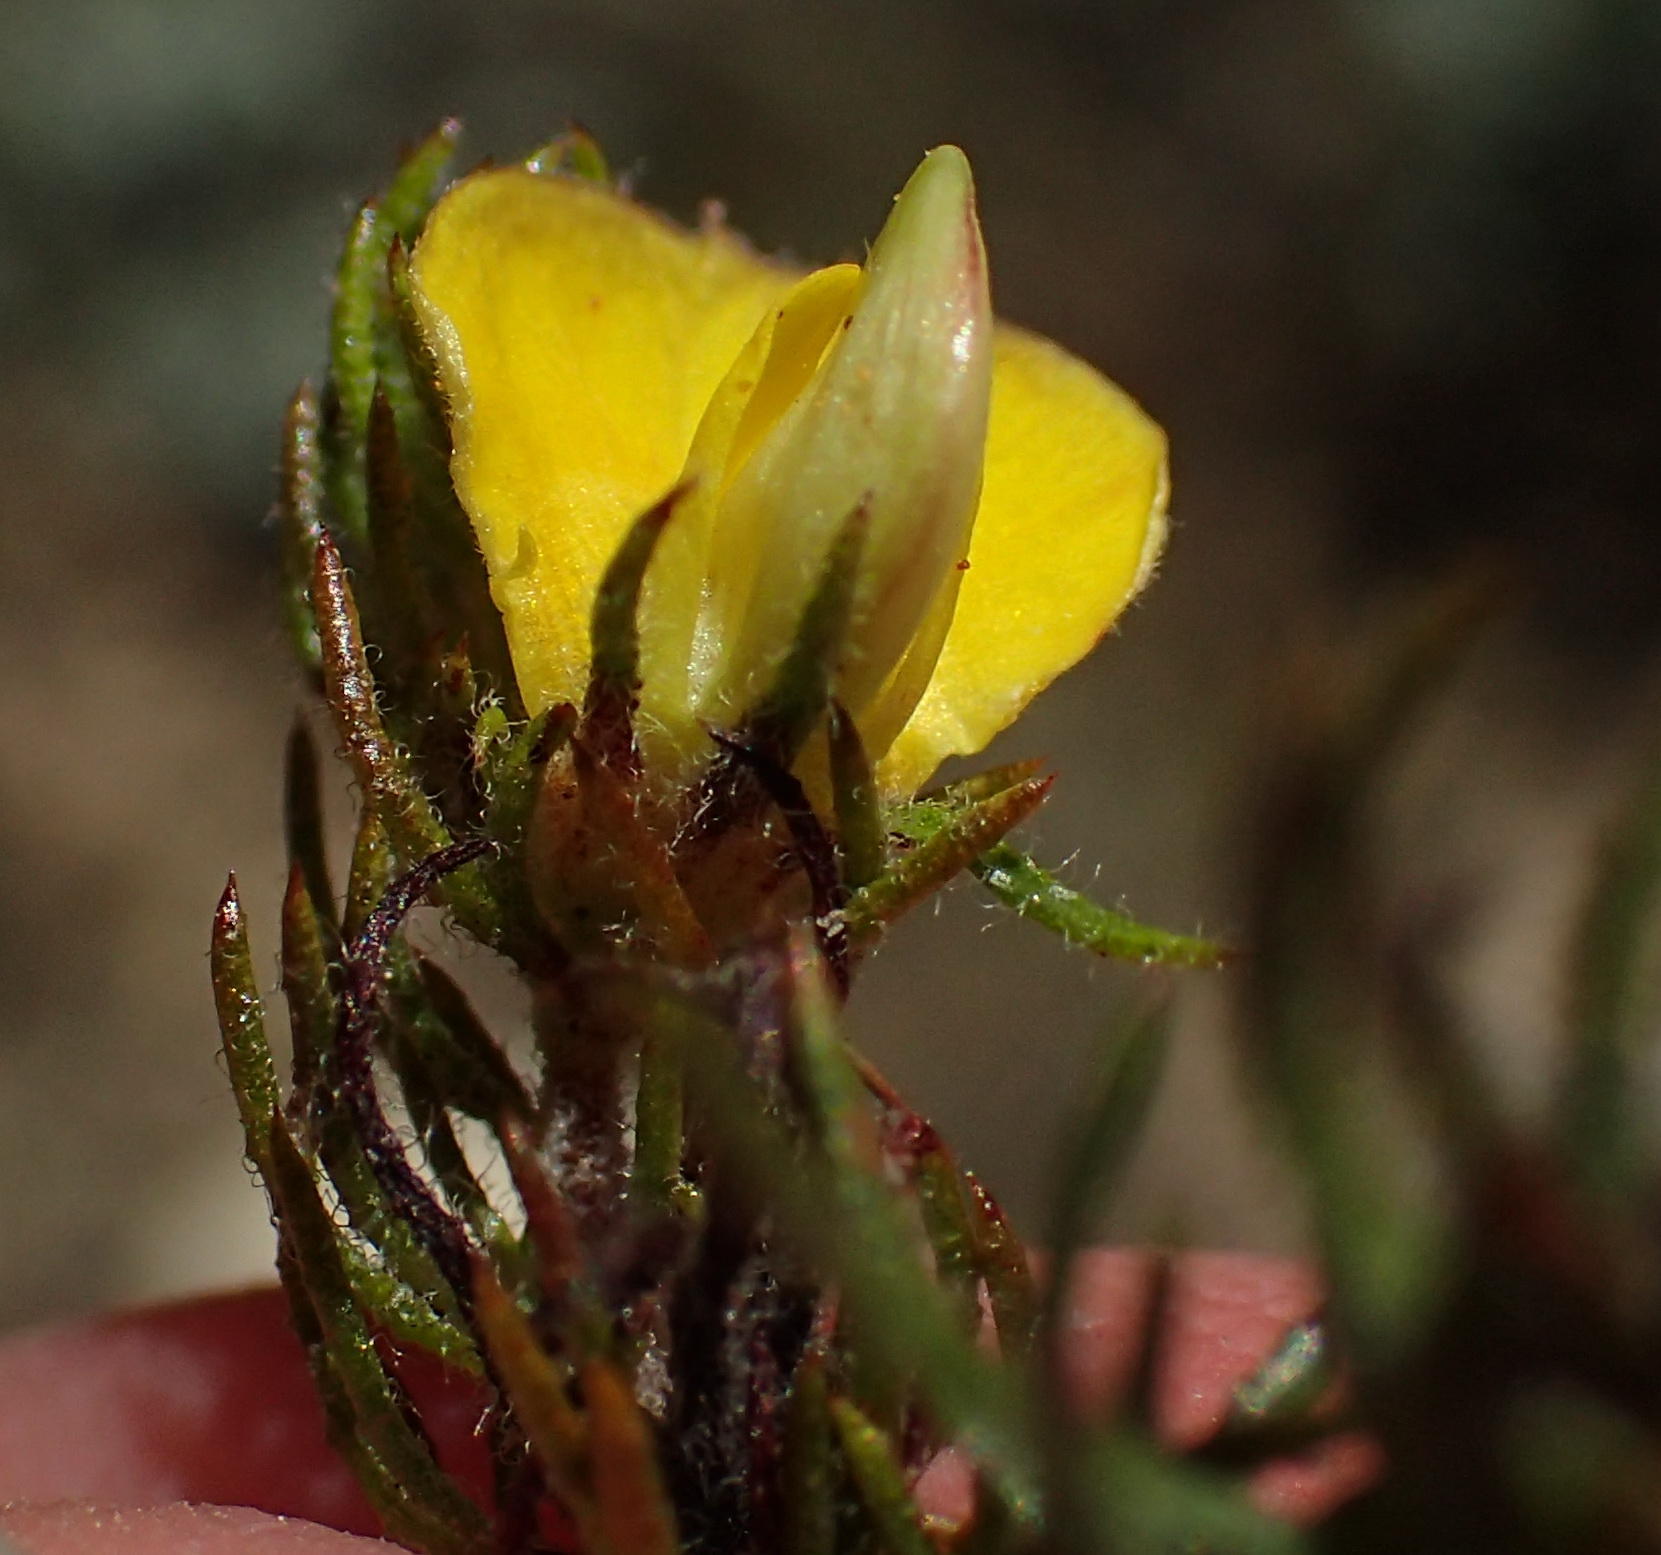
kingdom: Plantae
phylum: Tracheophyta
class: Magnoliopsida
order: Fabales
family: Fabaceae
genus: Aspalathus
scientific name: Aspalathus asparagoides
